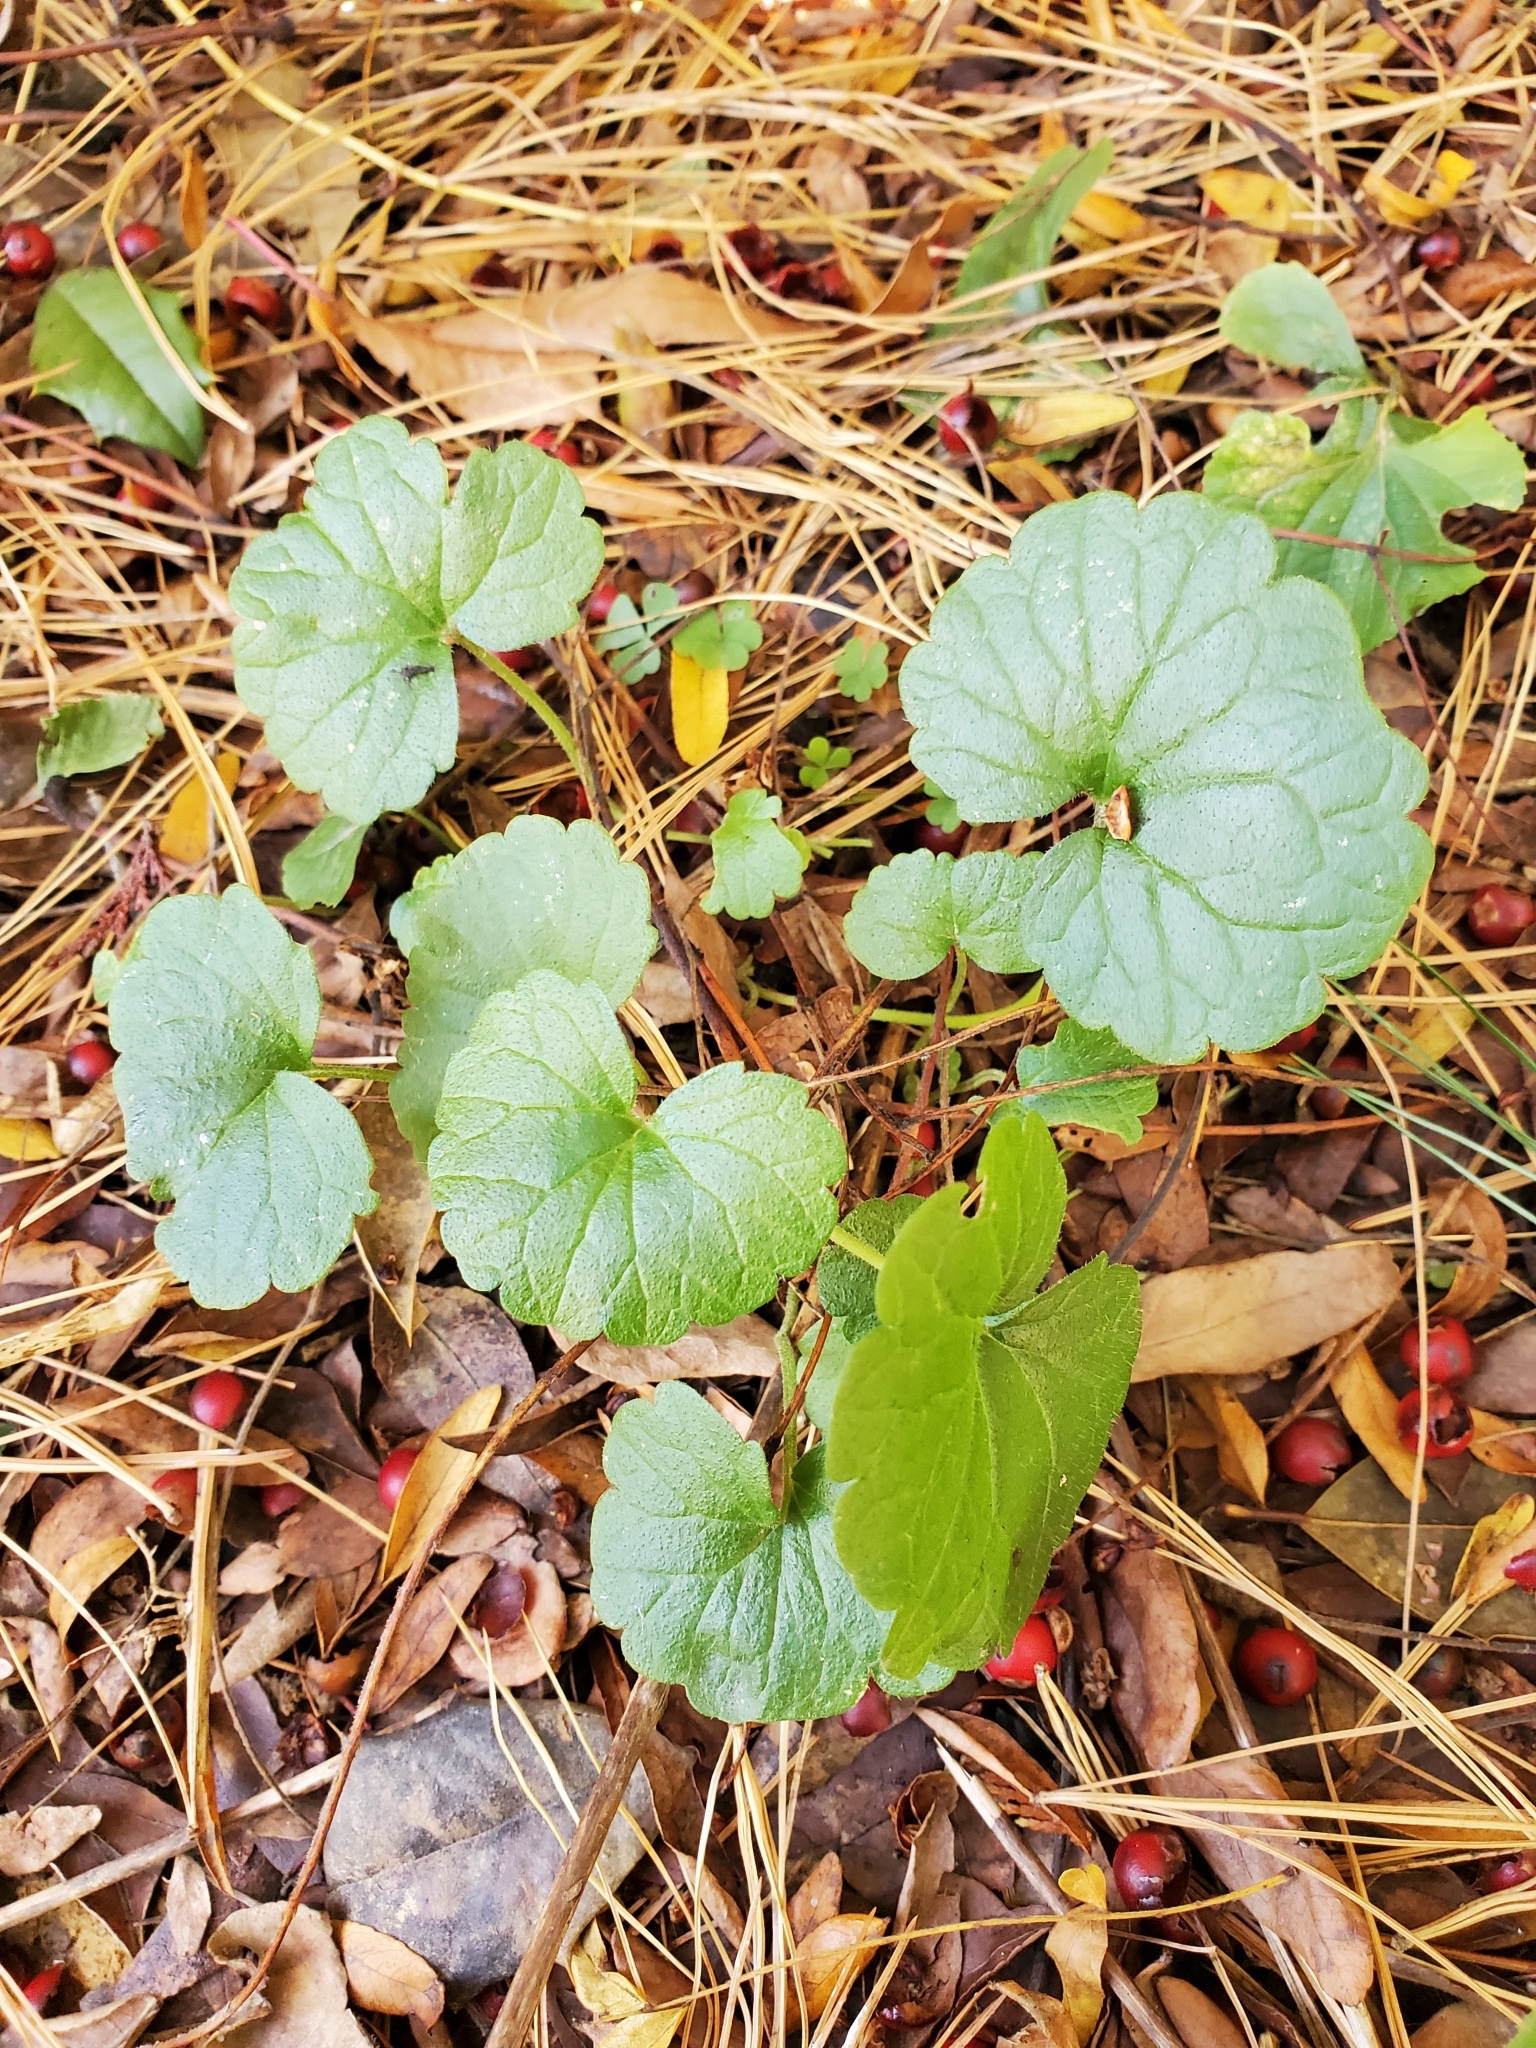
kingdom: Plantae
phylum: Tracheophyta
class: Magnoliopsida
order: Lamiales
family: Lamiaceae
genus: Glechoma
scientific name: Glechoma hederacea
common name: Ground ivy
